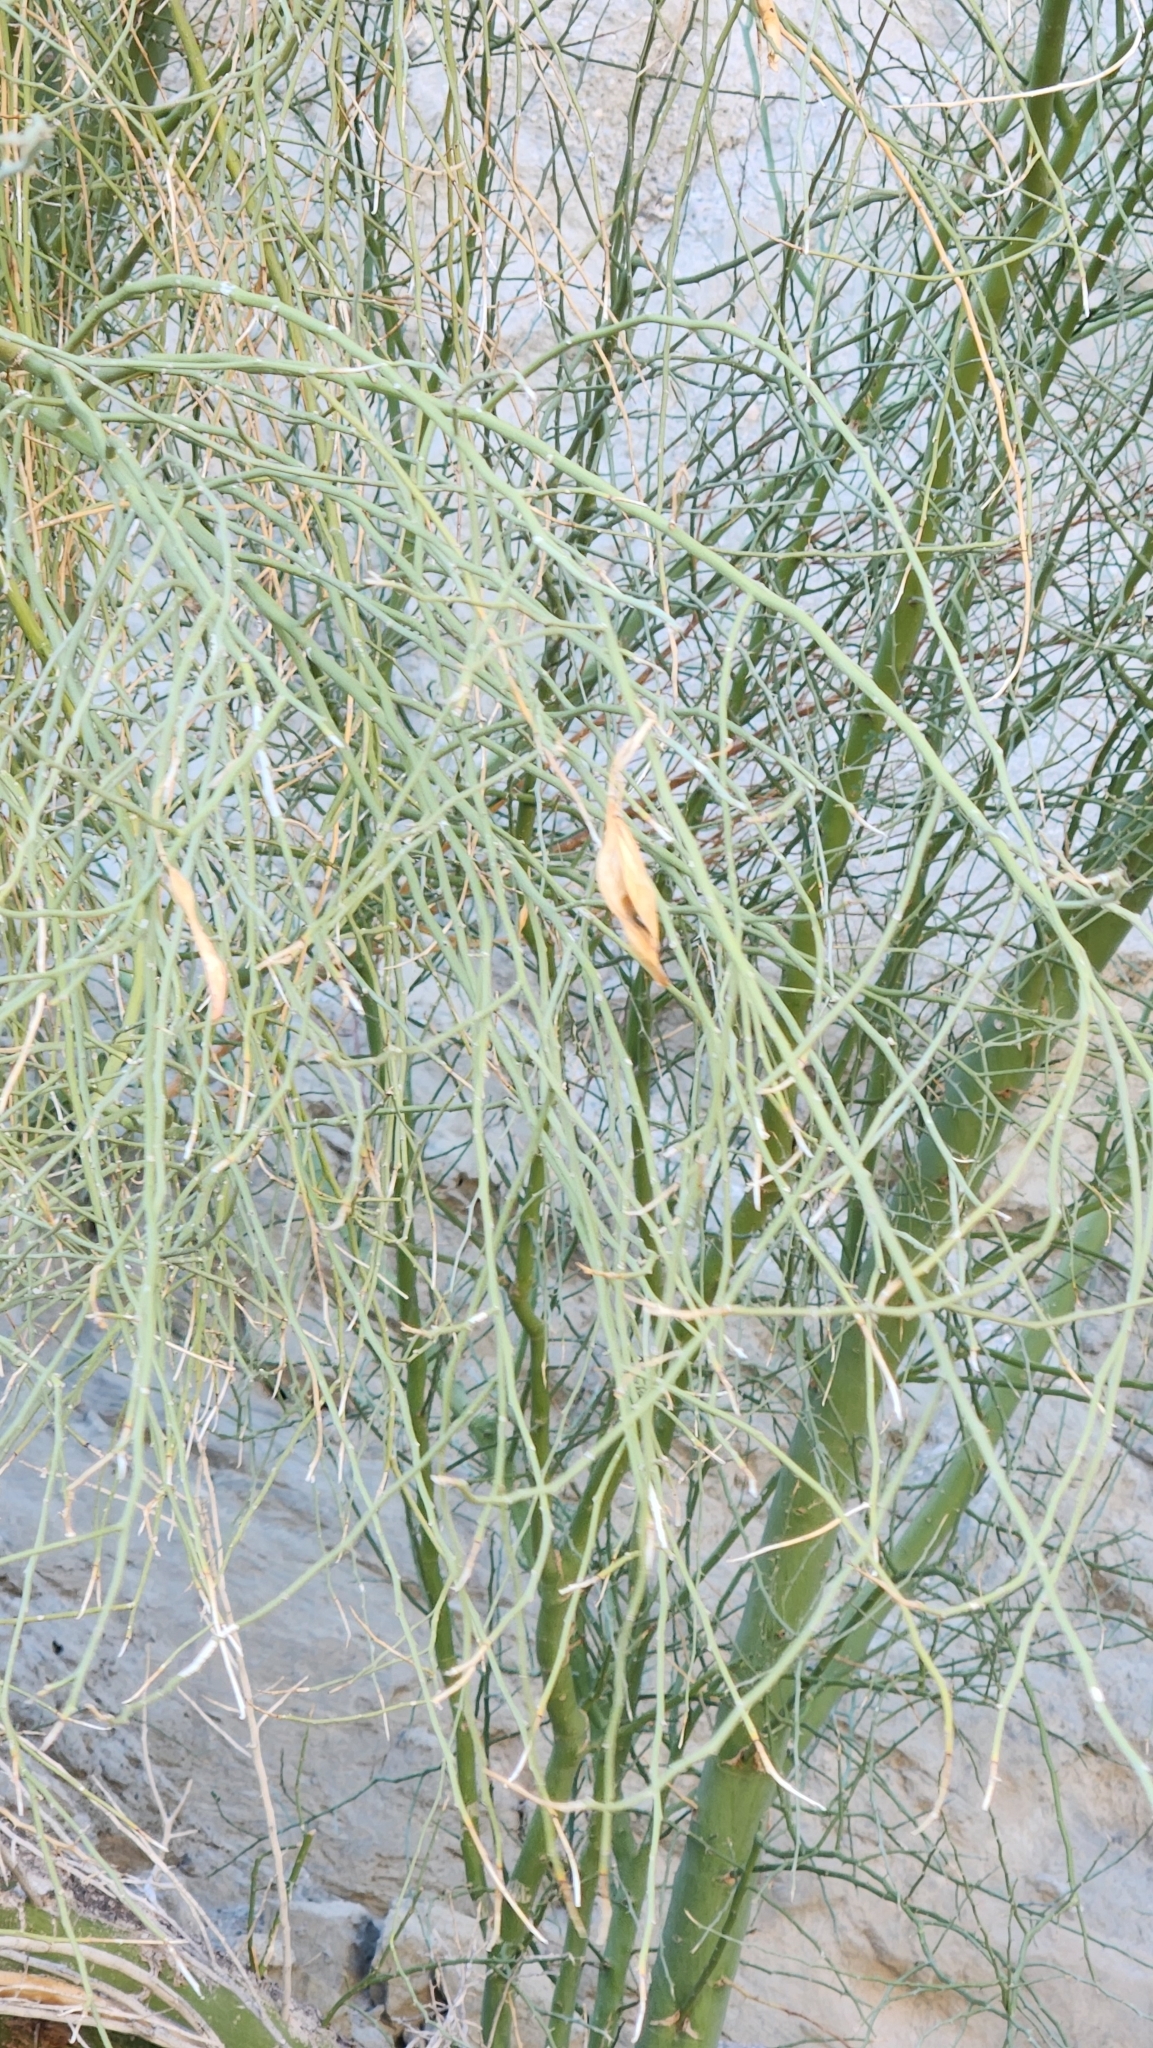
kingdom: Plantae
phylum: Tracheophyta
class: Magnoliopsida
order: Fabales
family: Fabaceae
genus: Parkinsonia
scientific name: Parkinsonia florida
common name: Blue paloverde
